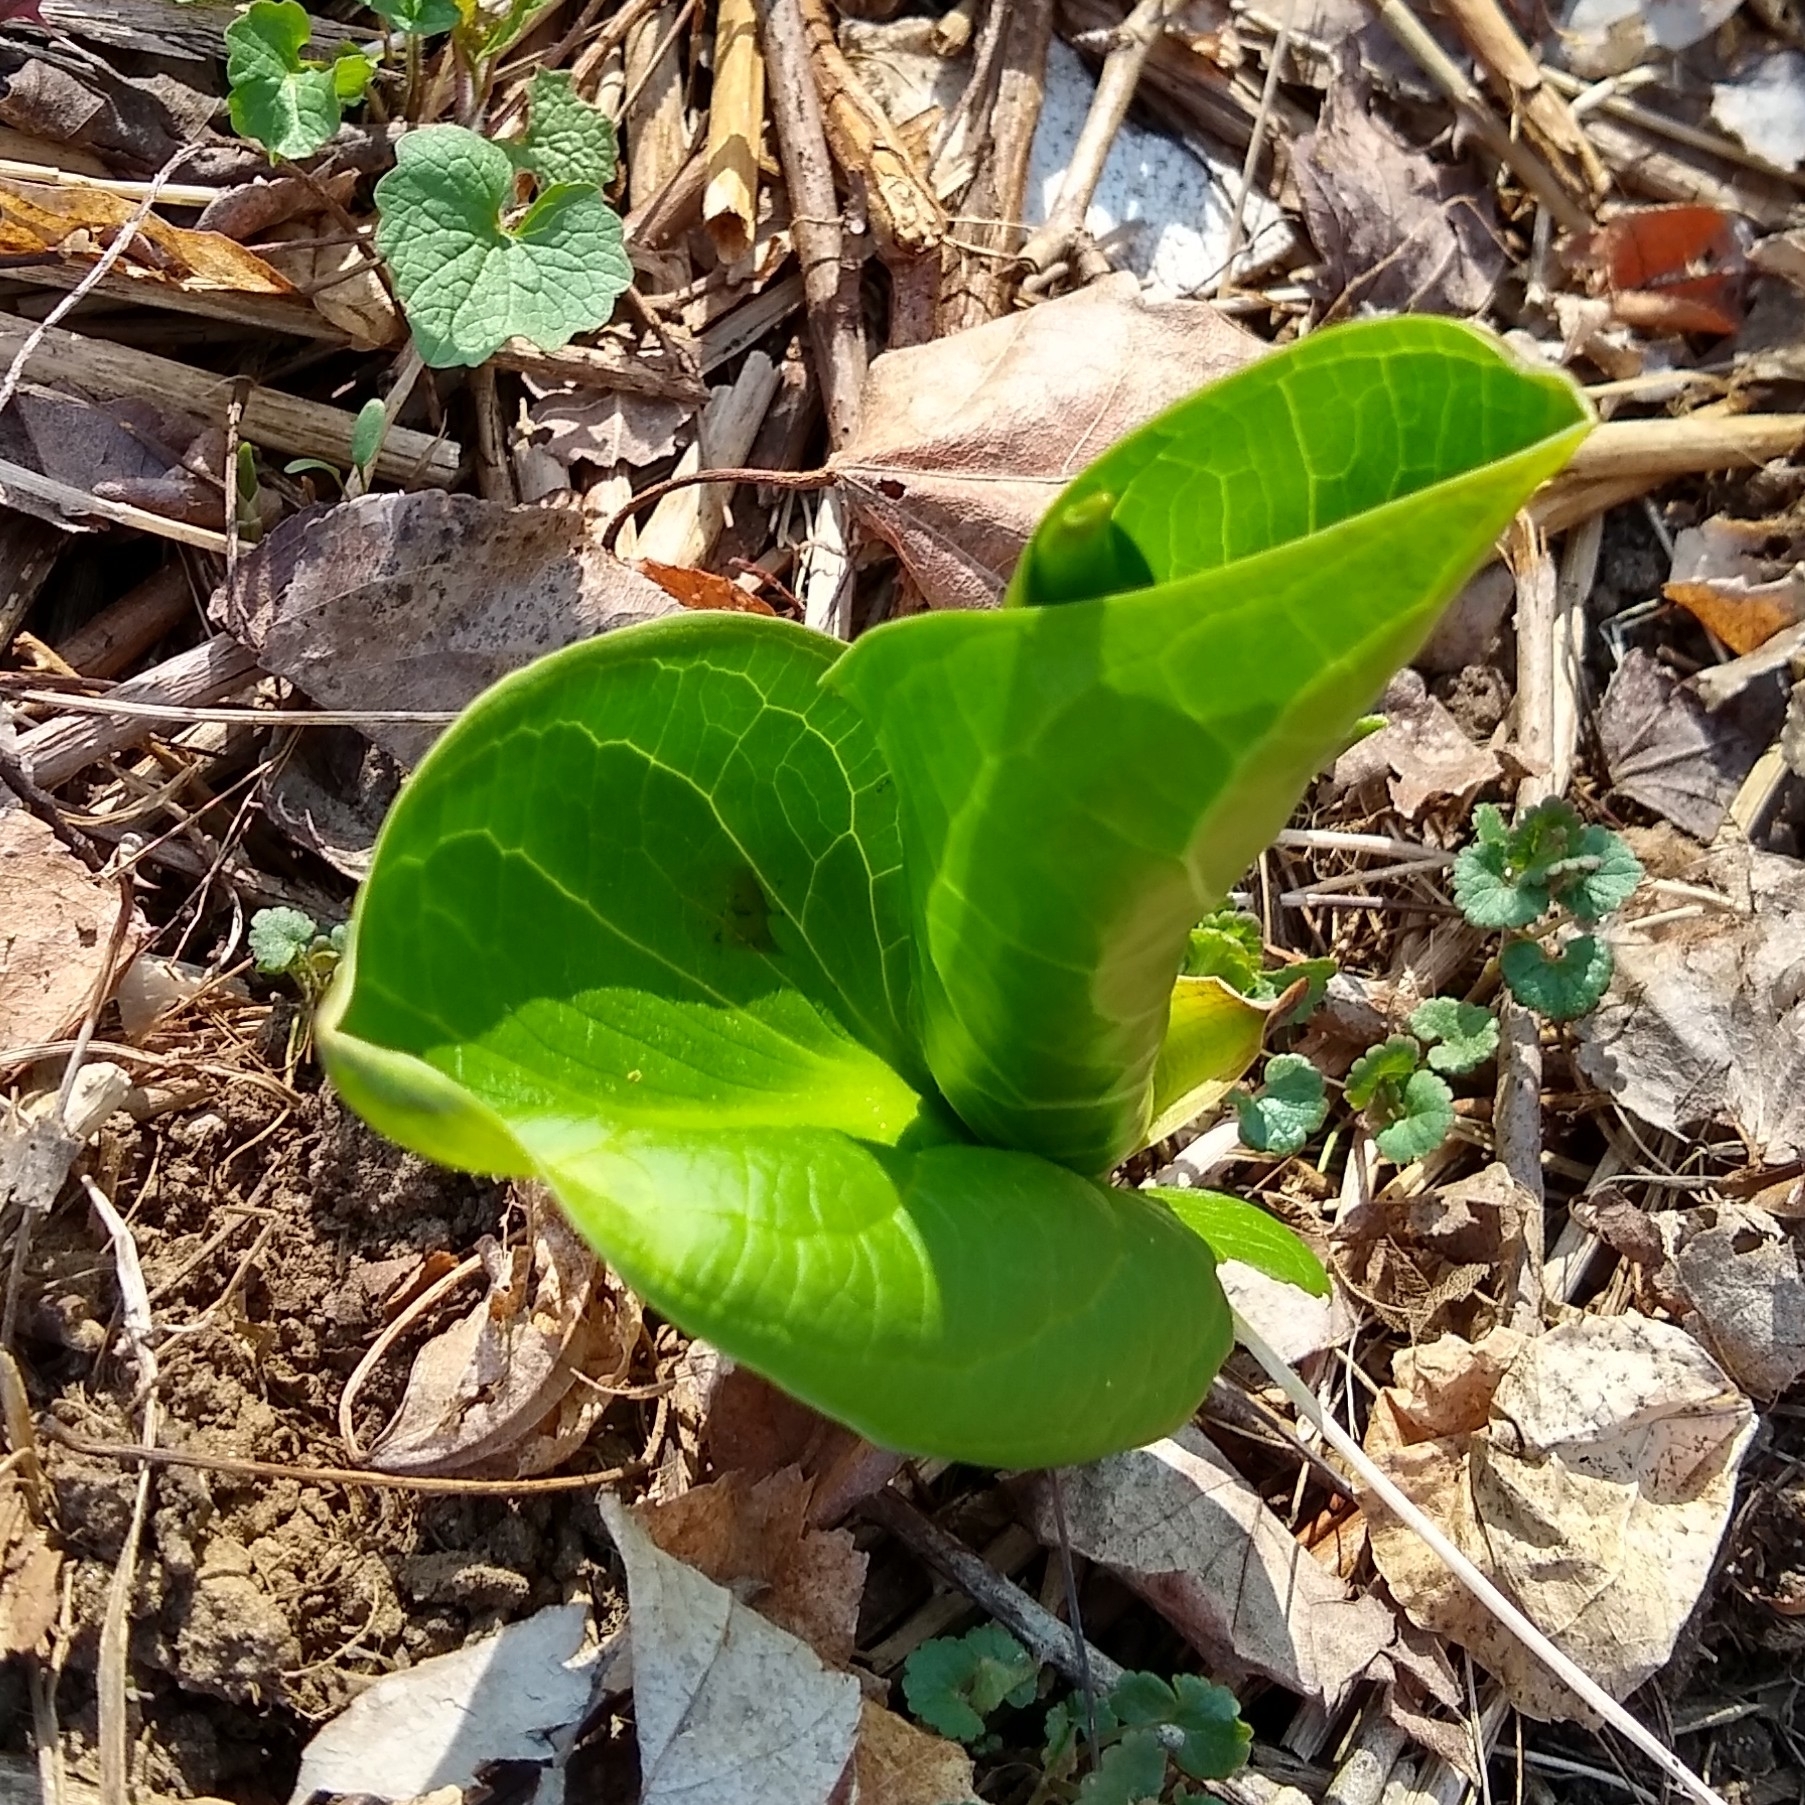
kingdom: Plantae
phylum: Tracheophyta
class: Liliopsida
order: Alismatales
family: Araceae
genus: Symplocarpus
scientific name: Symplocarpus foetidus
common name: Eastern skunk cabbage
